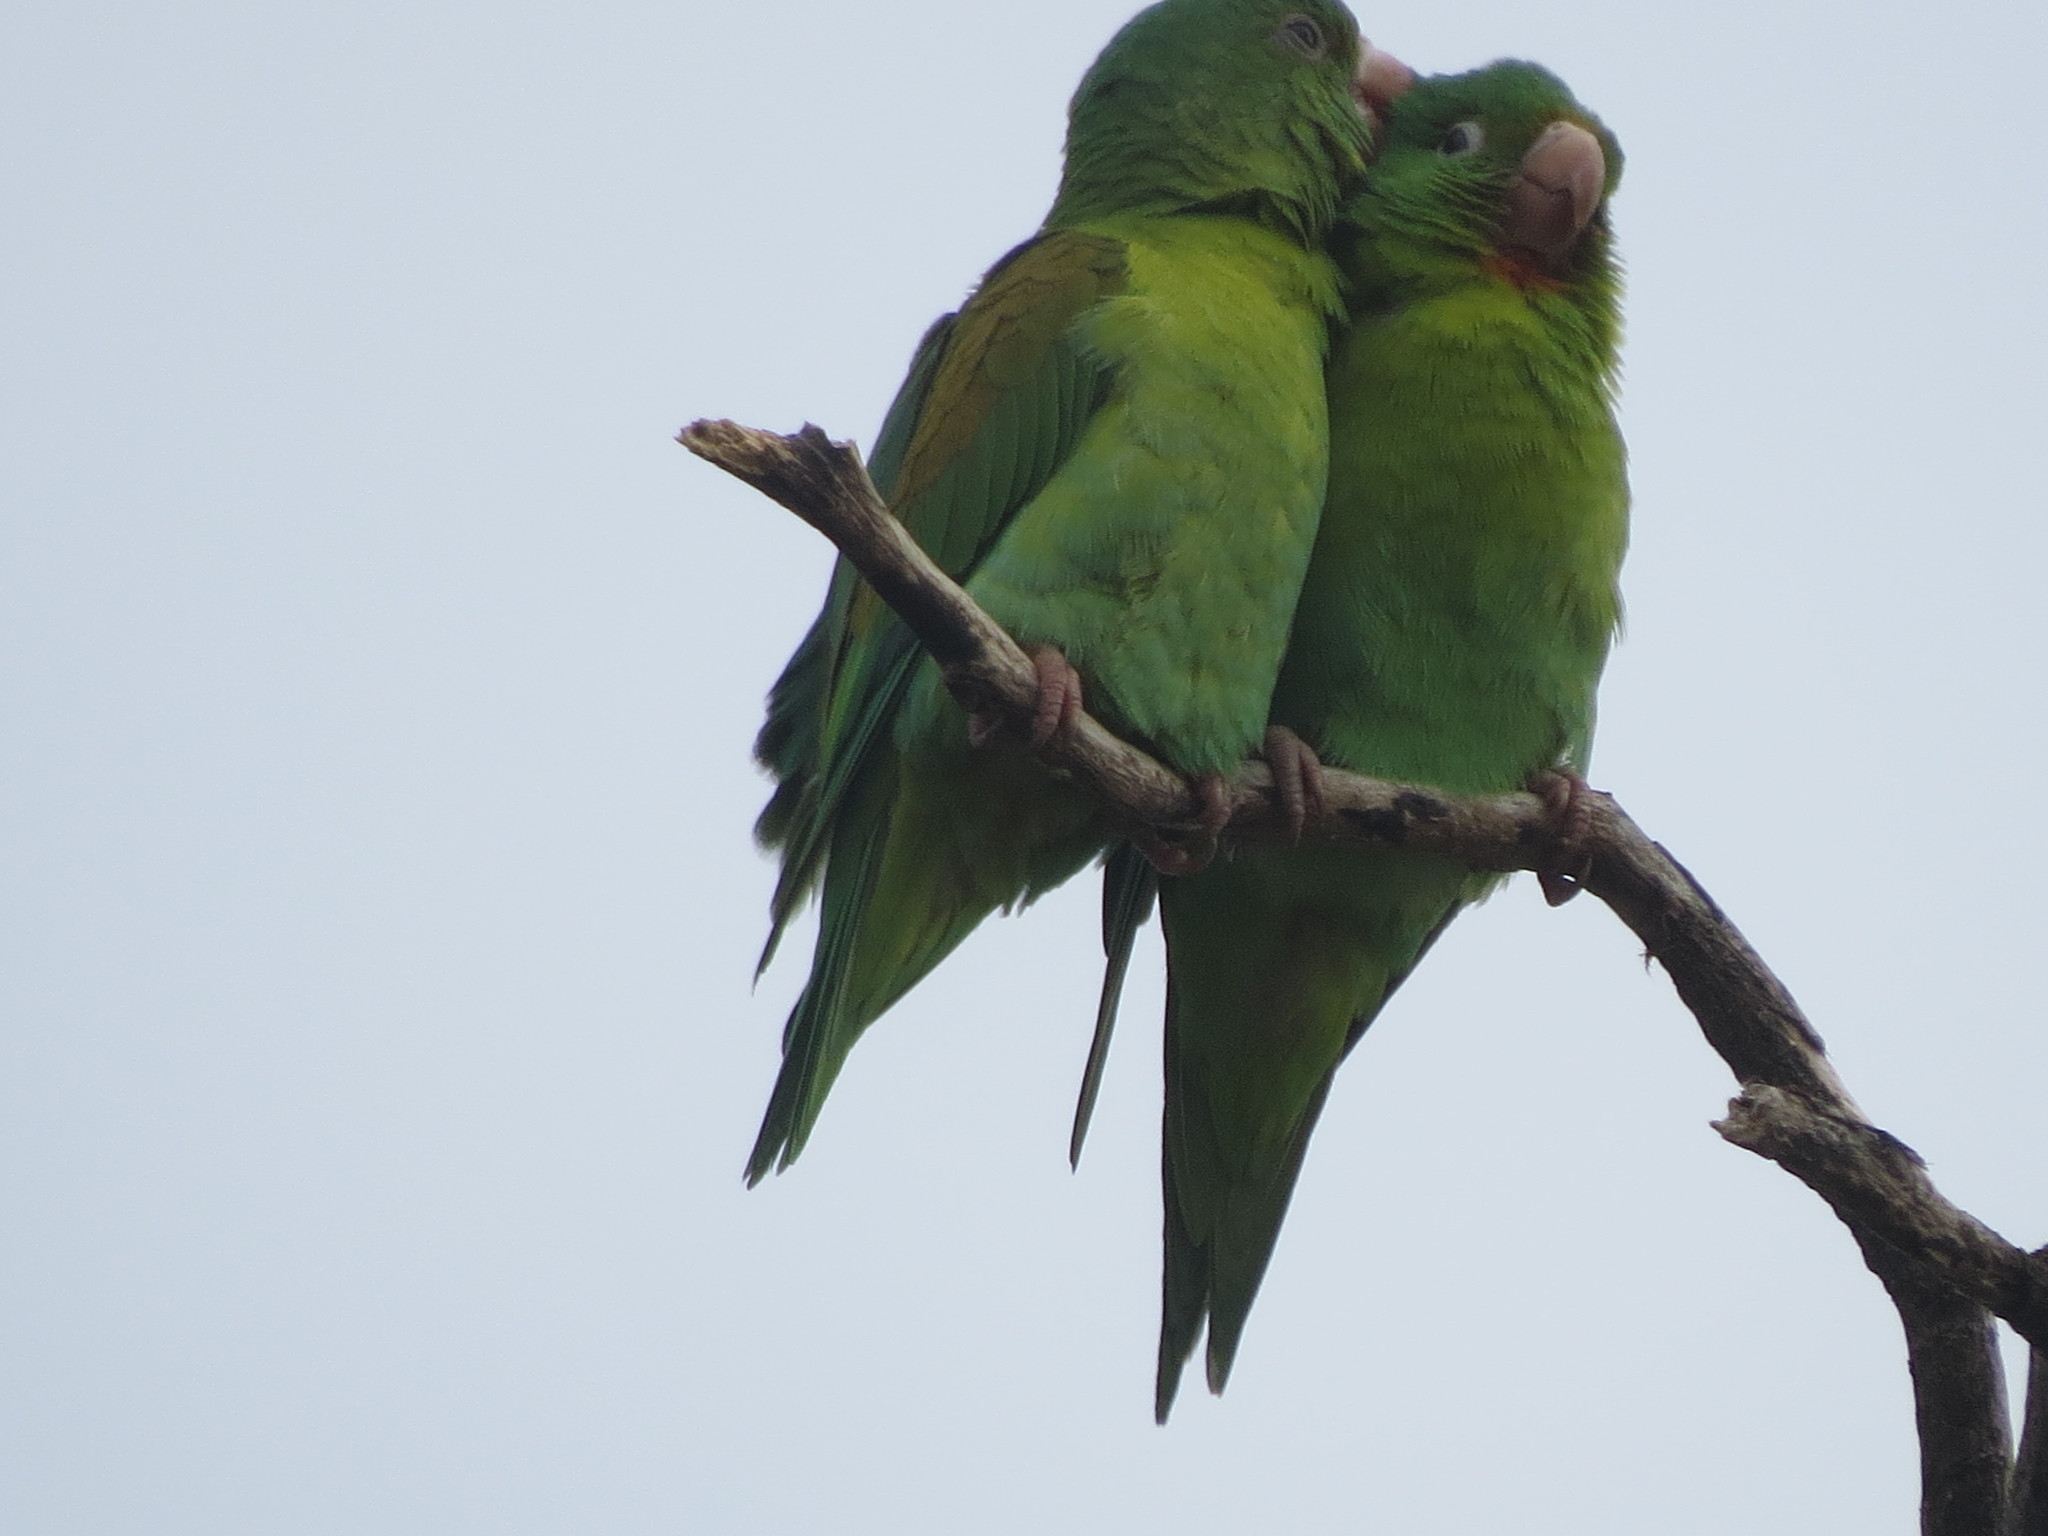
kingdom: Animalia
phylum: Chordata
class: Aves
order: Psittaciformes
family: Psittacidae
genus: Brotogeris
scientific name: Brotogeris jugularis
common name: Orange-chinned parakeet
